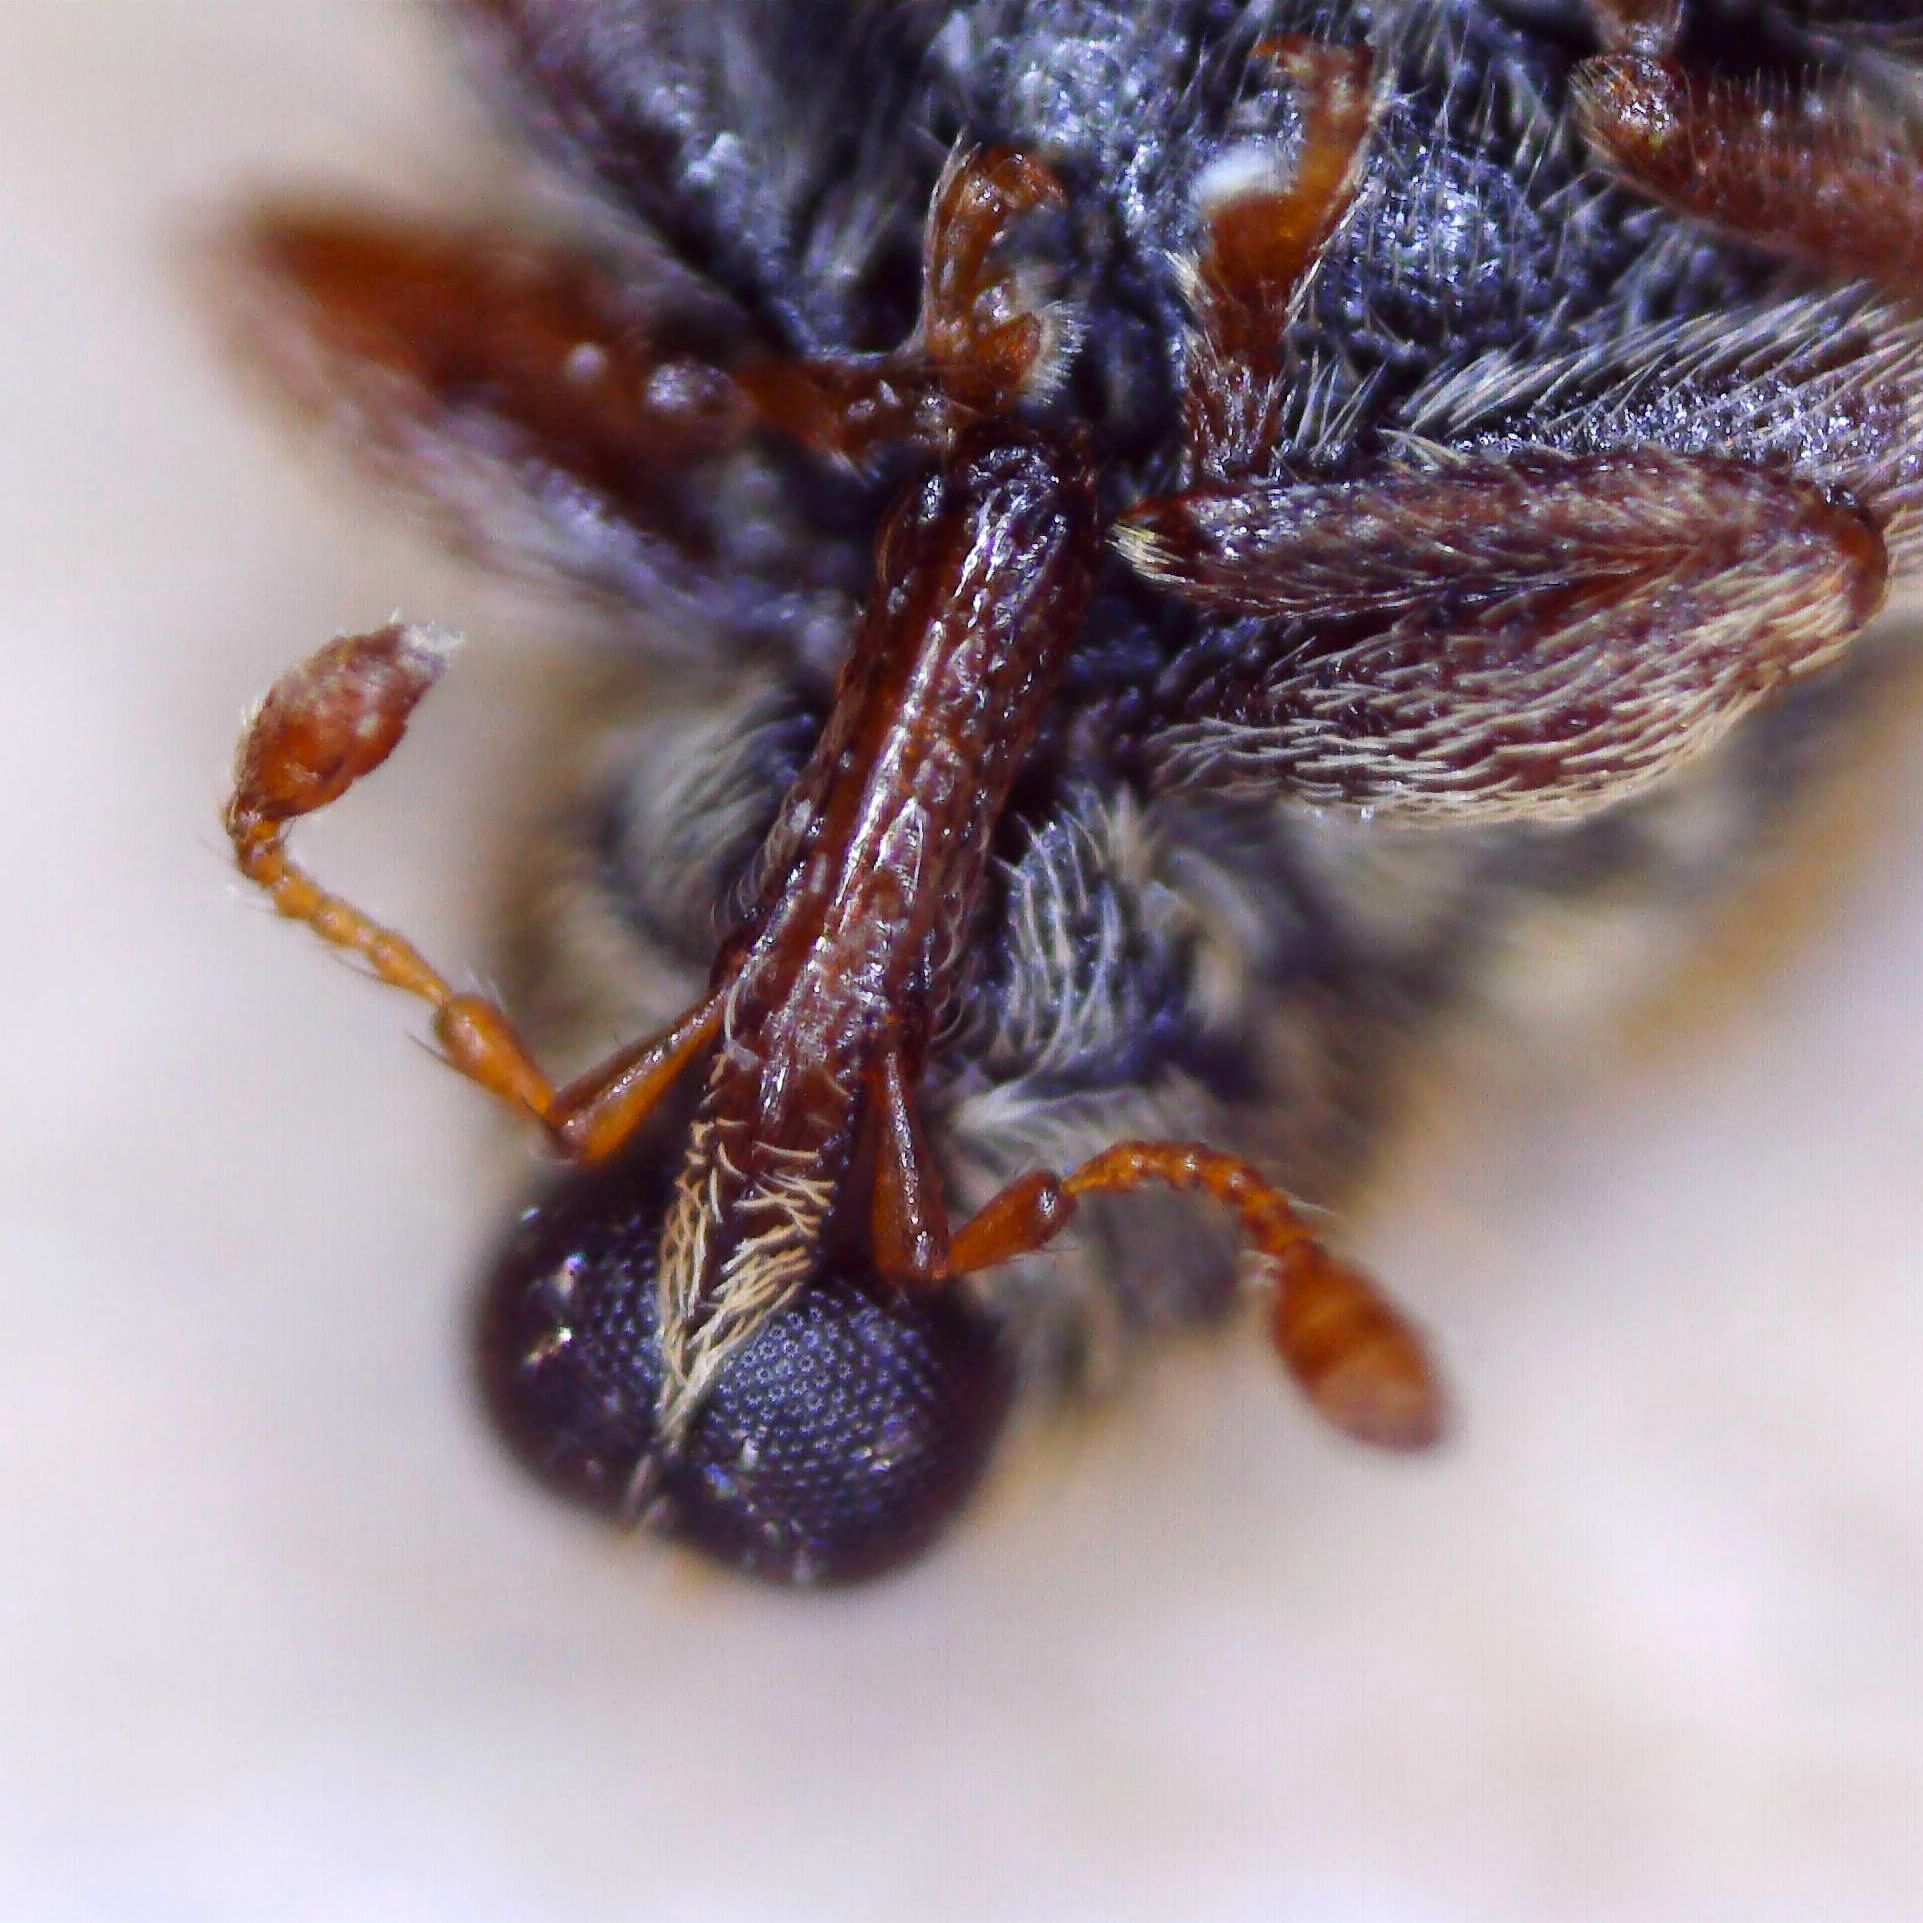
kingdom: Animalia
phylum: Arthropoda
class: Insecta
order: Coleoptera
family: Curculionidae
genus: Orchestes
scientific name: Orchestes quercus
